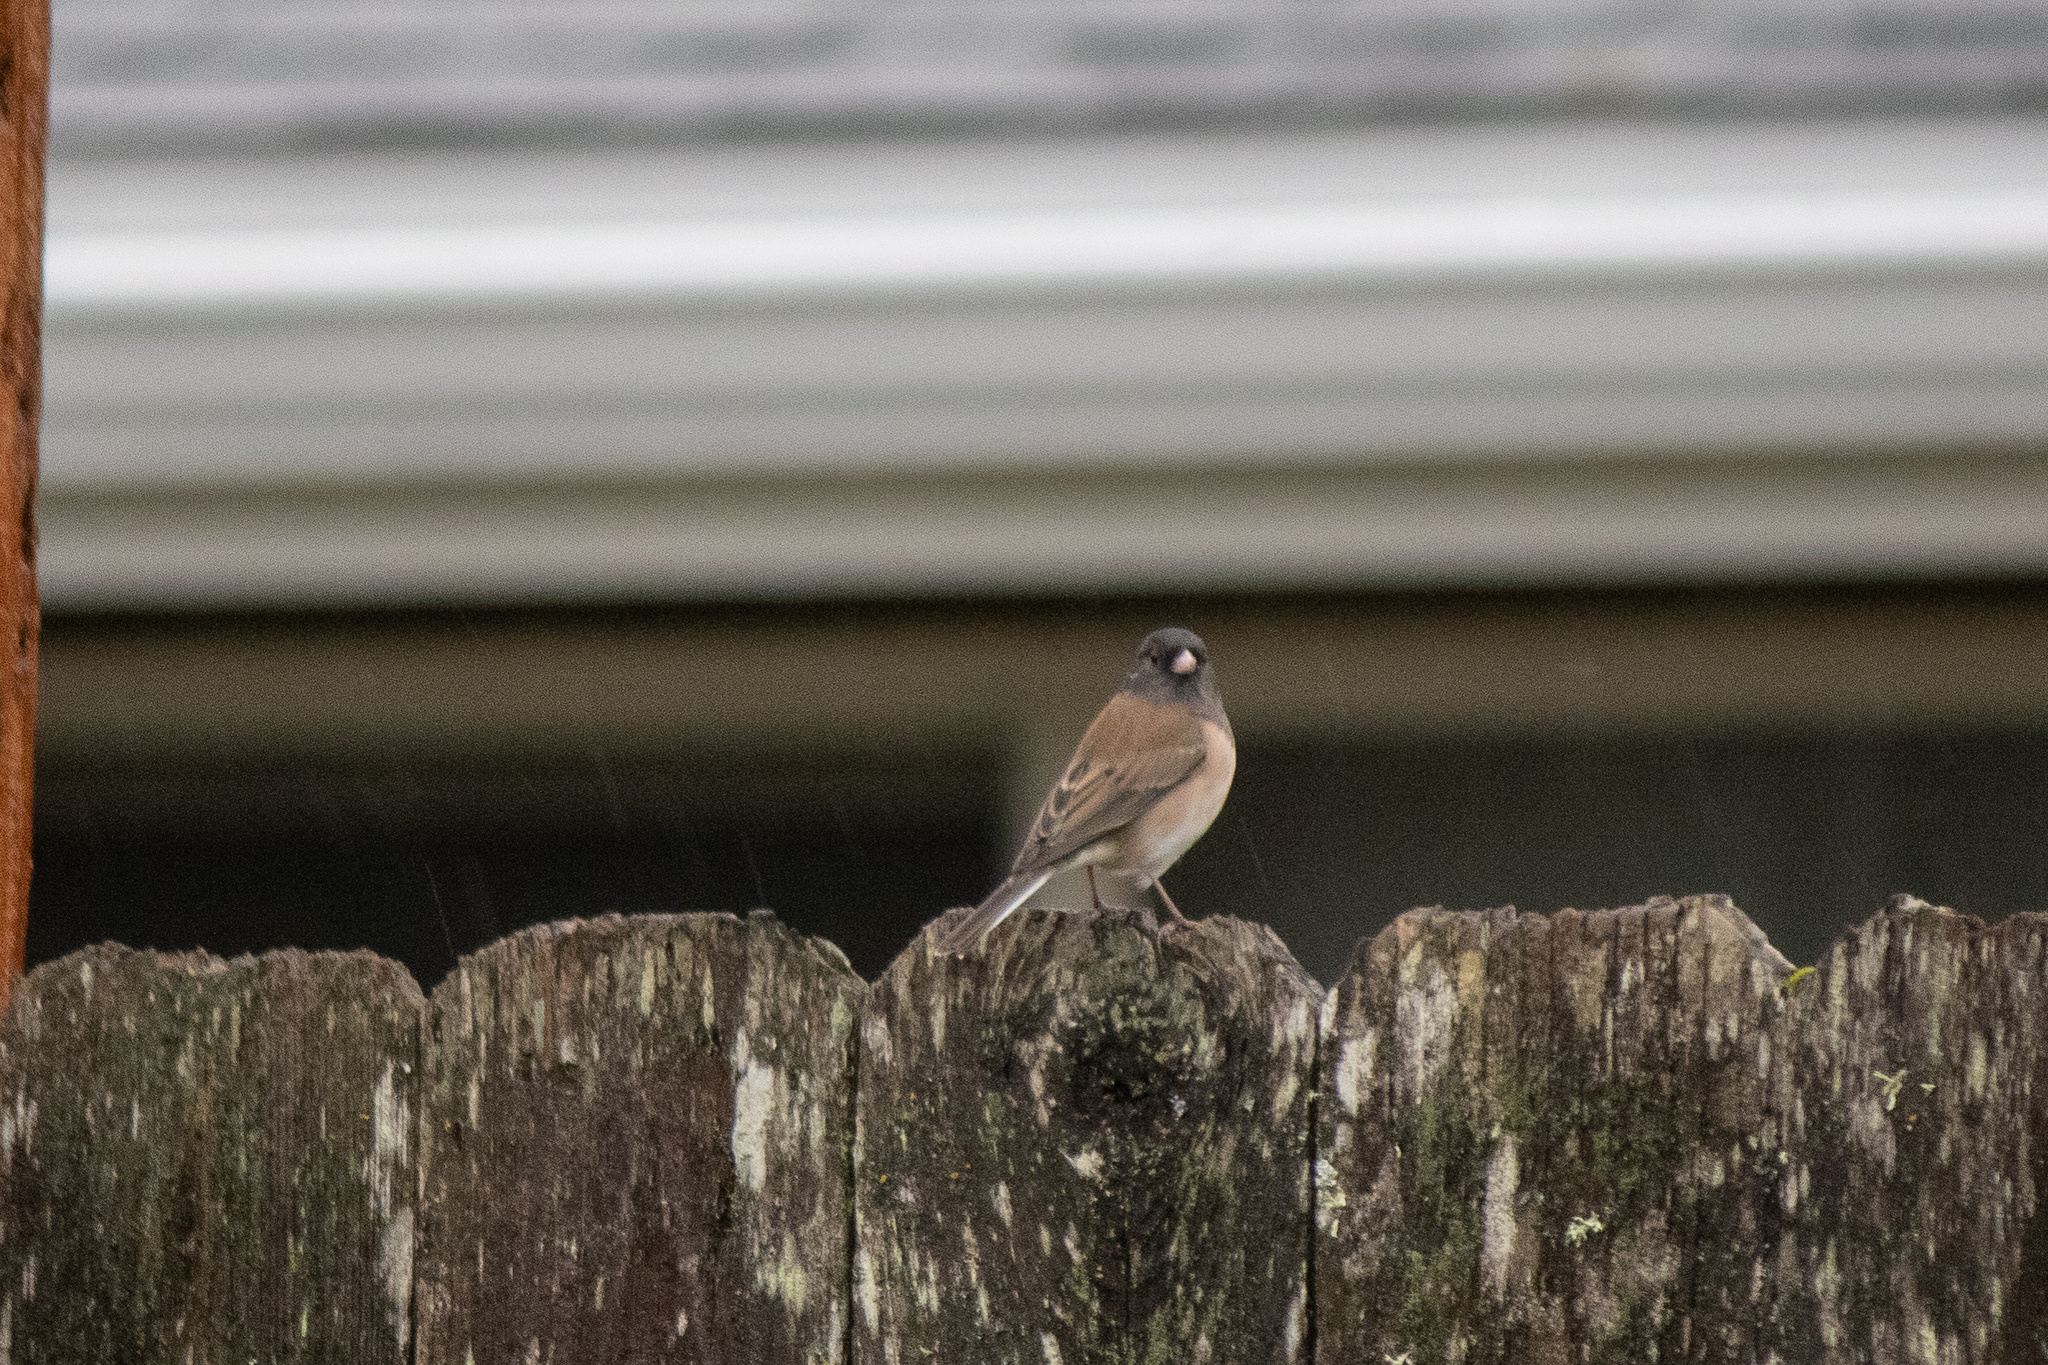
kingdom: Animalia
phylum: Chordata
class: Aves
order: Passeriformes
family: Passerellidae
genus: Junco
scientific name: Junco hyemalis
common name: Dark-eyed junco
